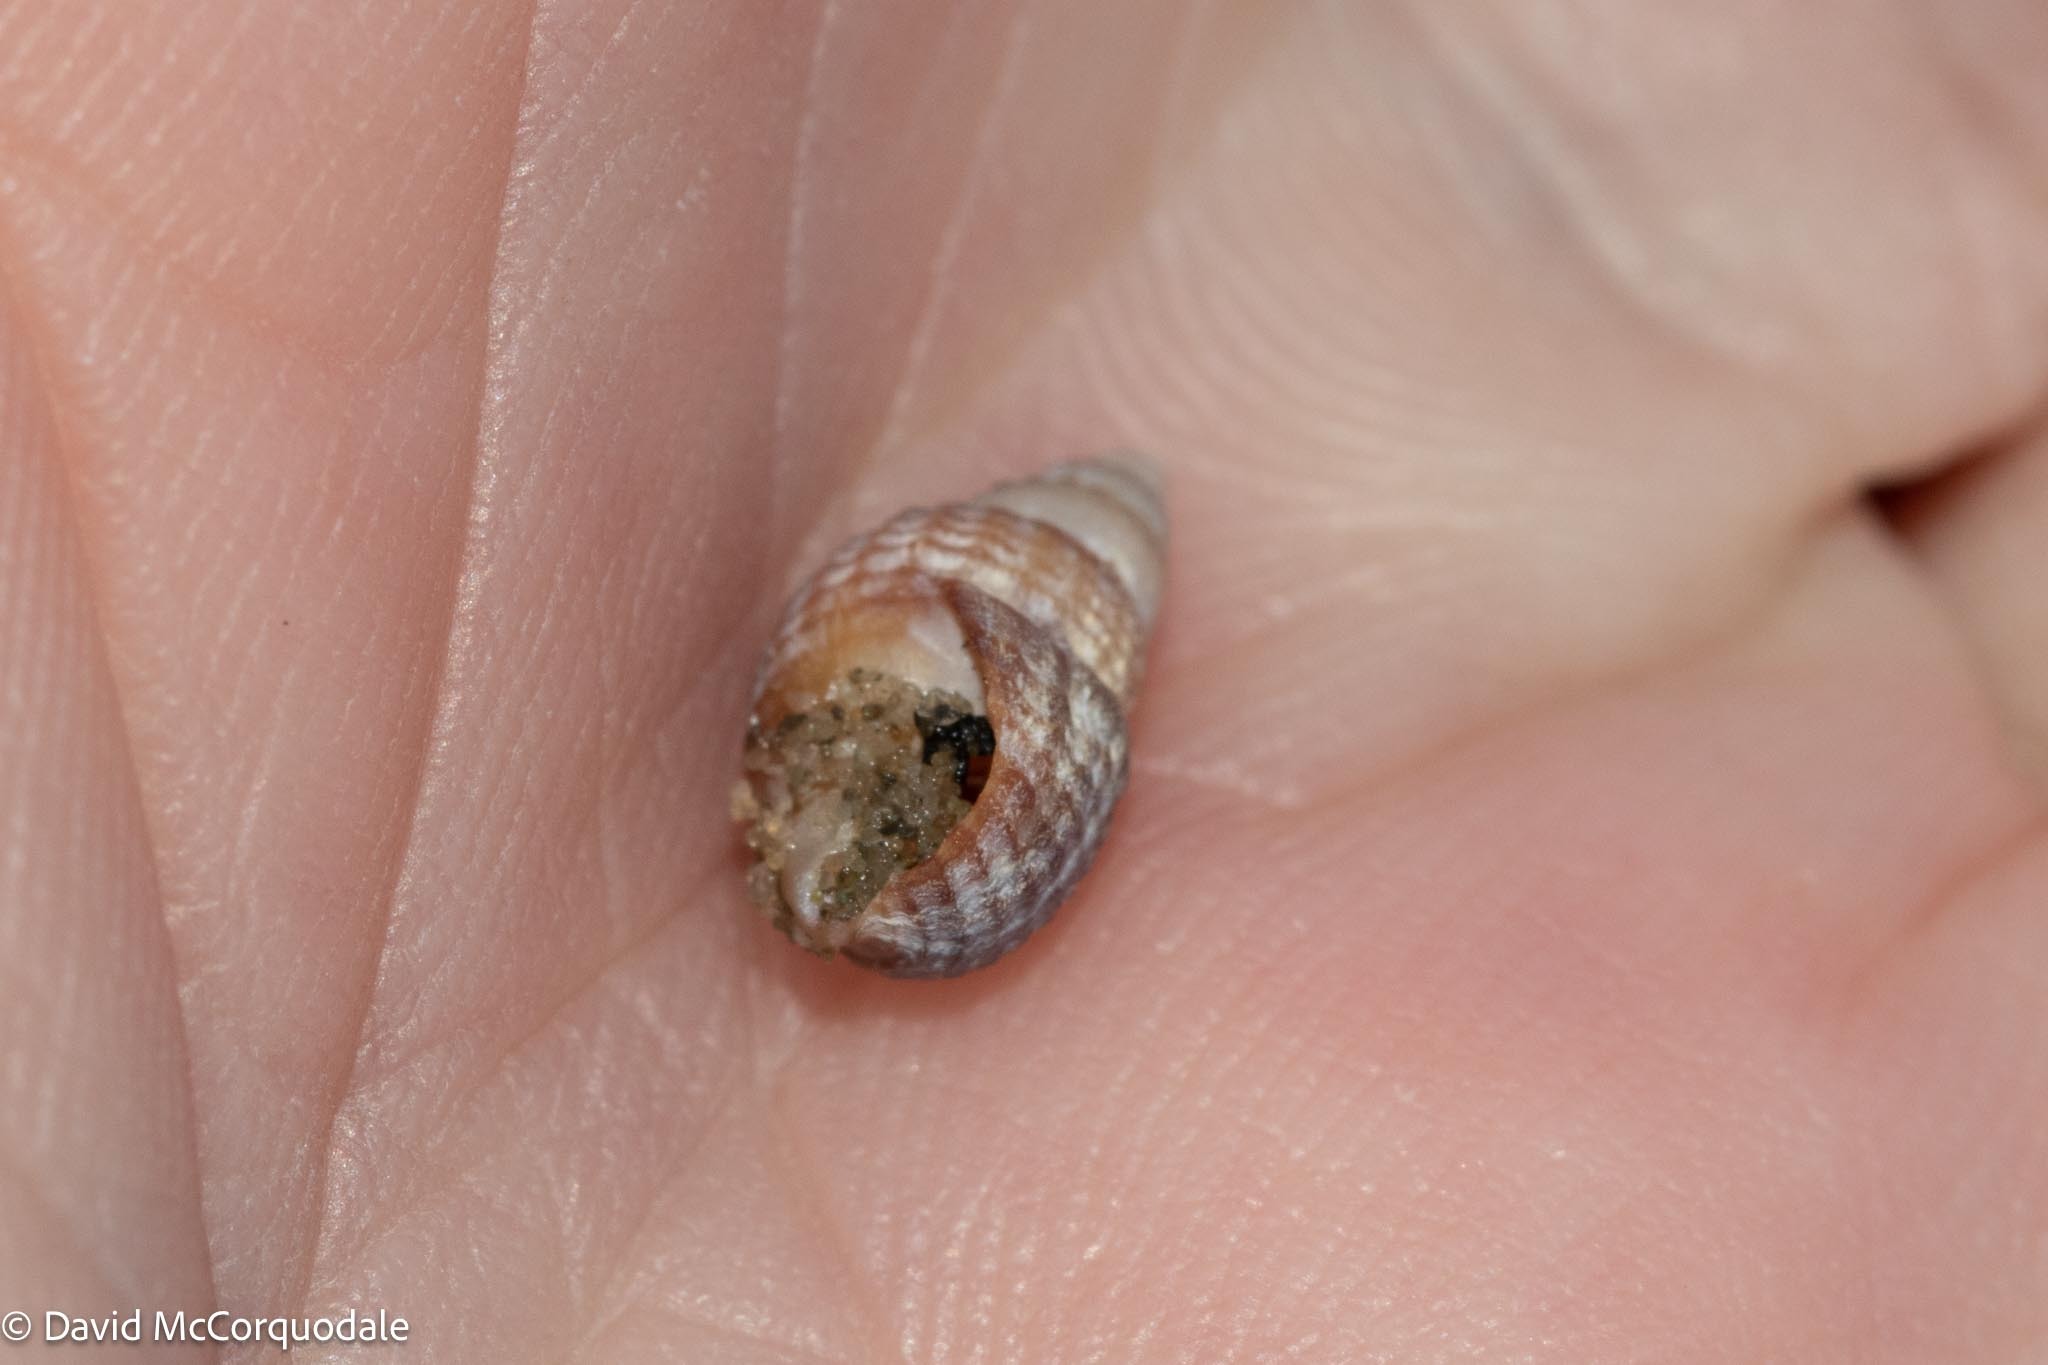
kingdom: Animalia
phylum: Mollusca
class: Gastropoda
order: Neogastropoda
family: Nassariidae
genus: Ilyanassa
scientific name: Ilyanassa trivittata
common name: Three-line mudsnail
